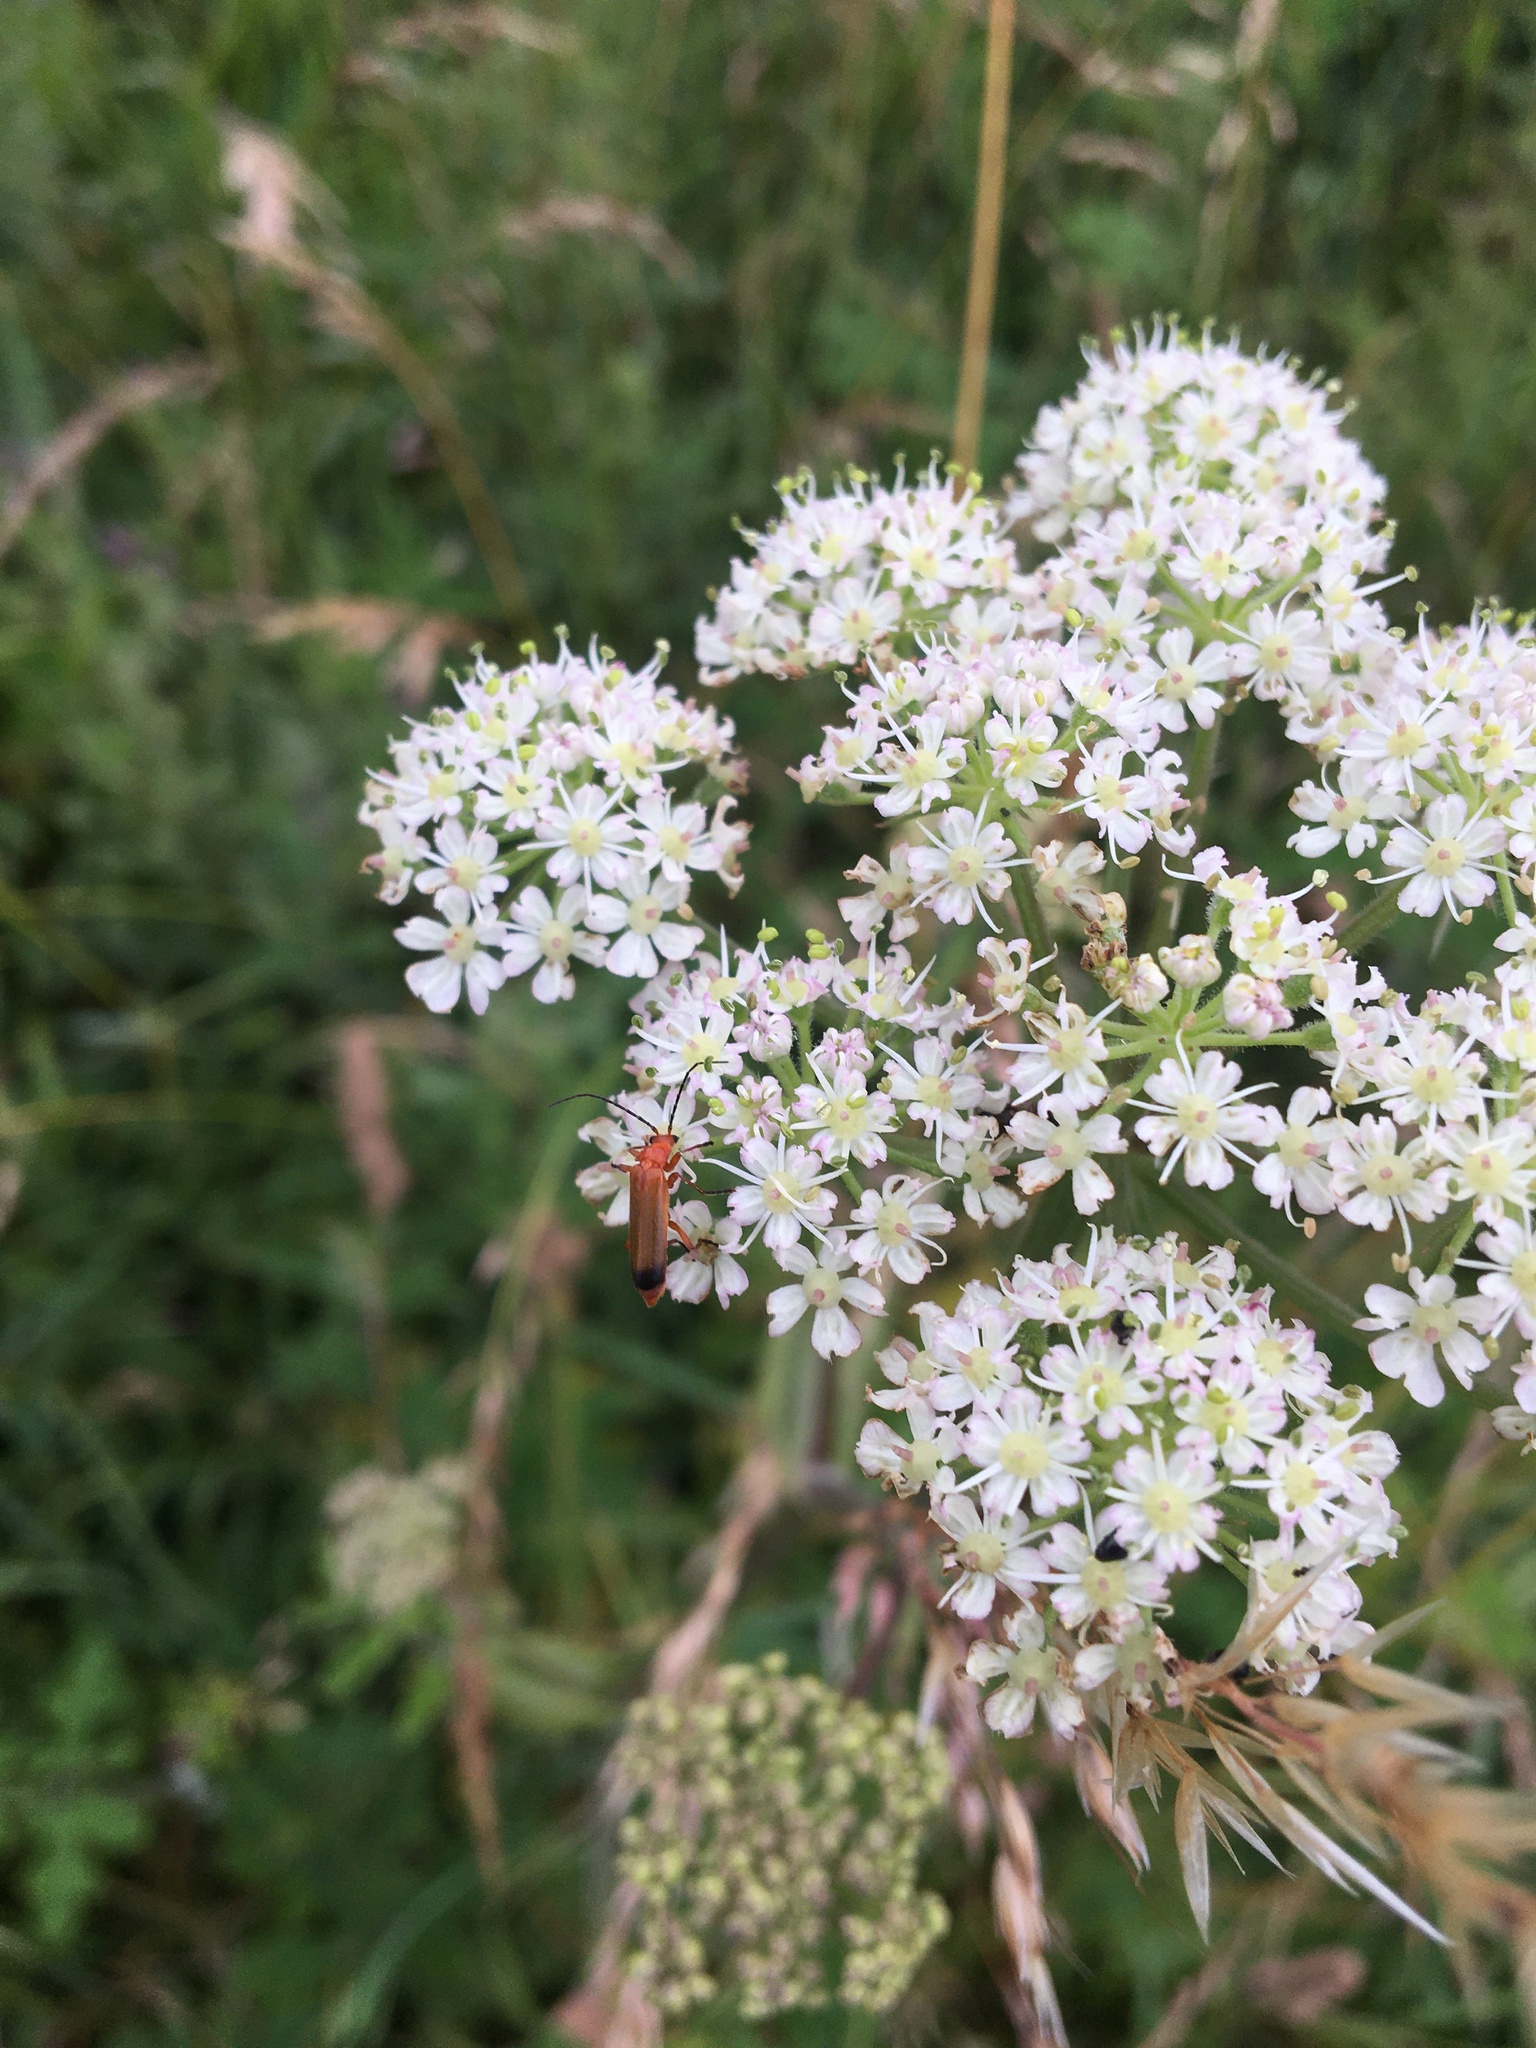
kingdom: Animalia
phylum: Arthropoda
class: Insecta
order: Coleoptera
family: Cantharidae
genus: Rhagonycha
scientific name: Rhagonycha fulva
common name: Common red soldier beetle
